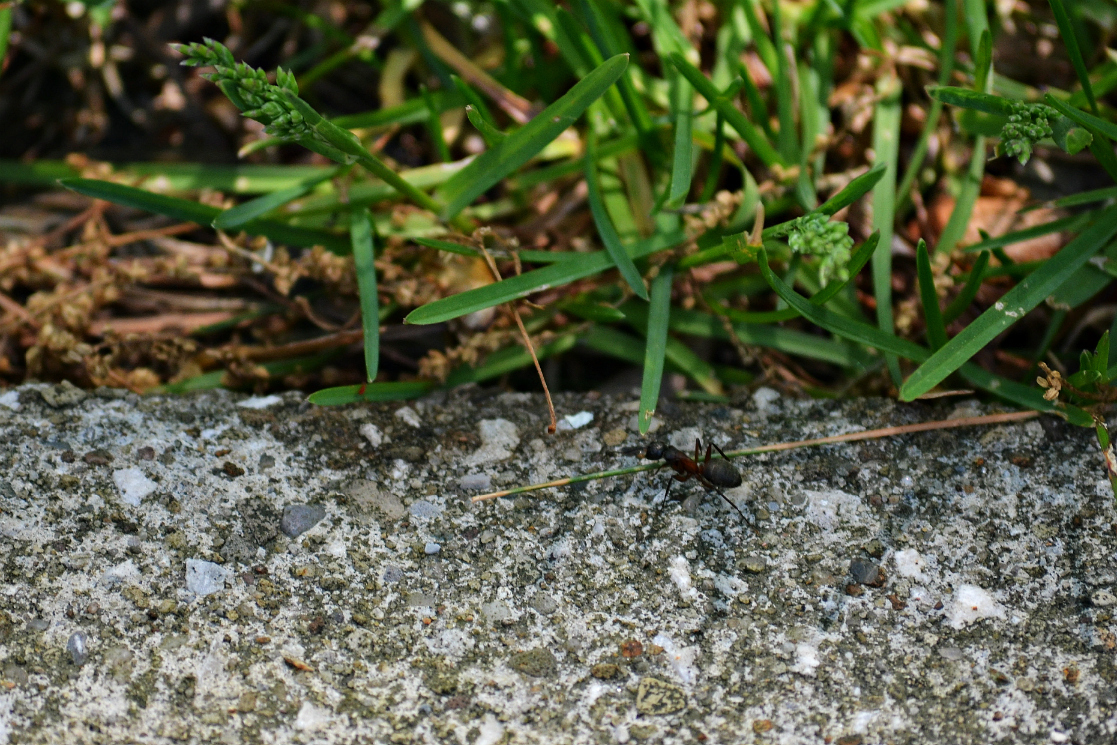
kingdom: Animalia
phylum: Arthropoda
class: Insecta
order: Hymenoptera
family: Formicidae
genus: Camponotus
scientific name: Camponotus chromaiodes
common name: Red carpenter ant
